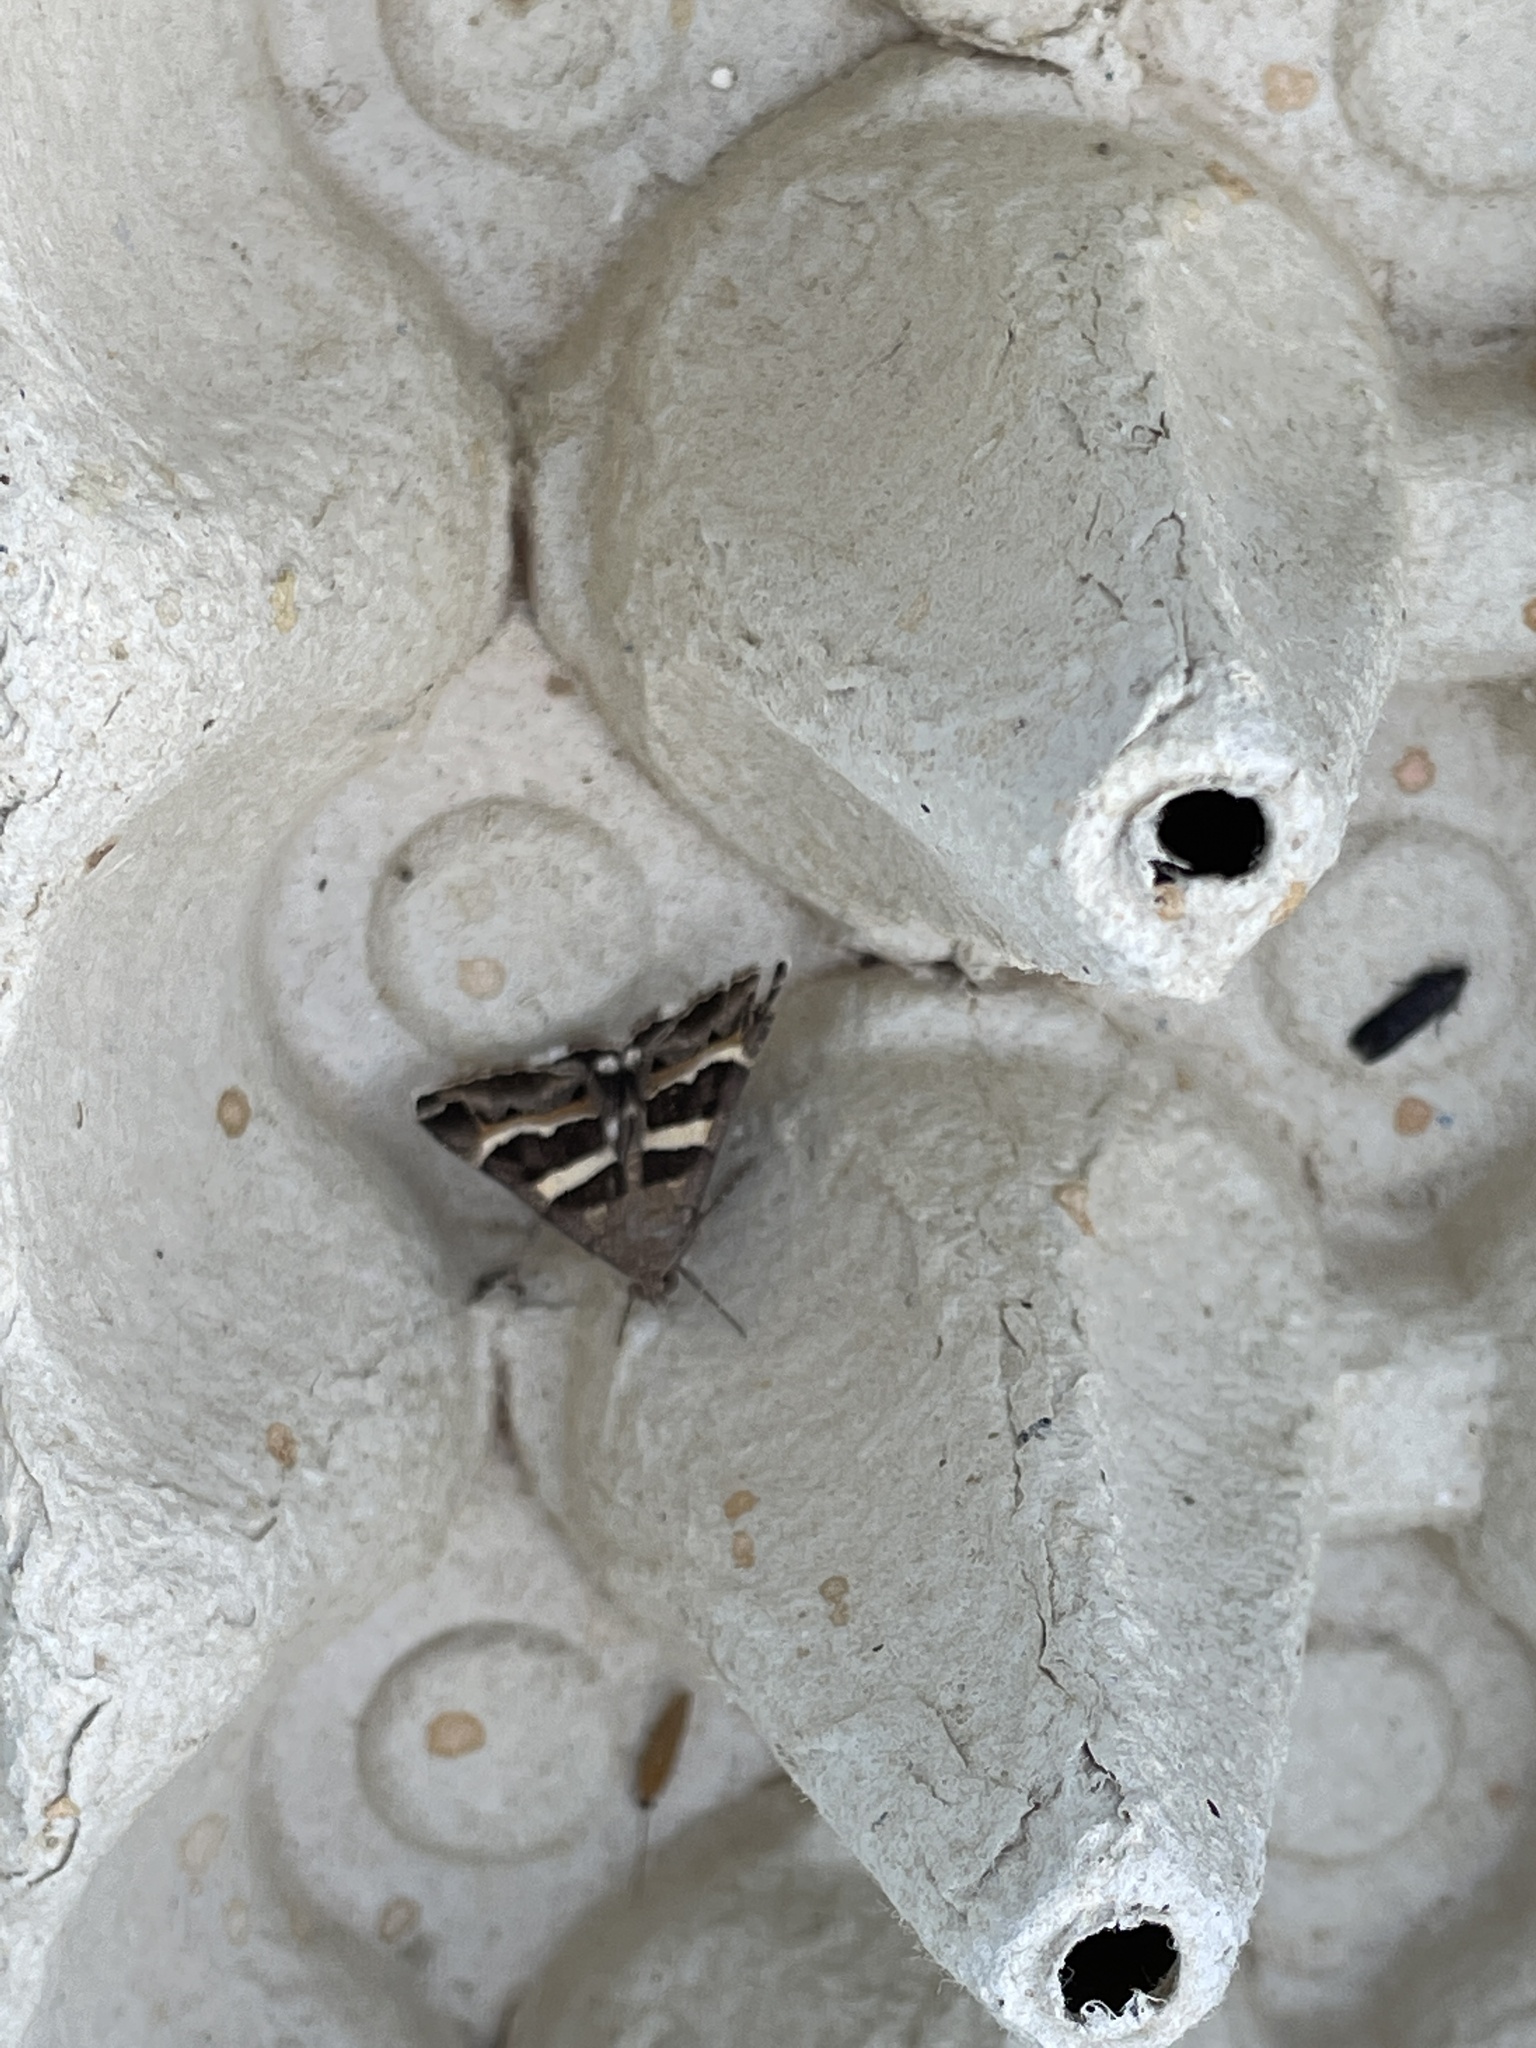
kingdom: Animalia
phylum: Arthropoda
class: Insecta
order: Lepidoptera
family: Erebidae
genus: Grammodes
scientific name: Grammodes stolida
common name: Geometrician
